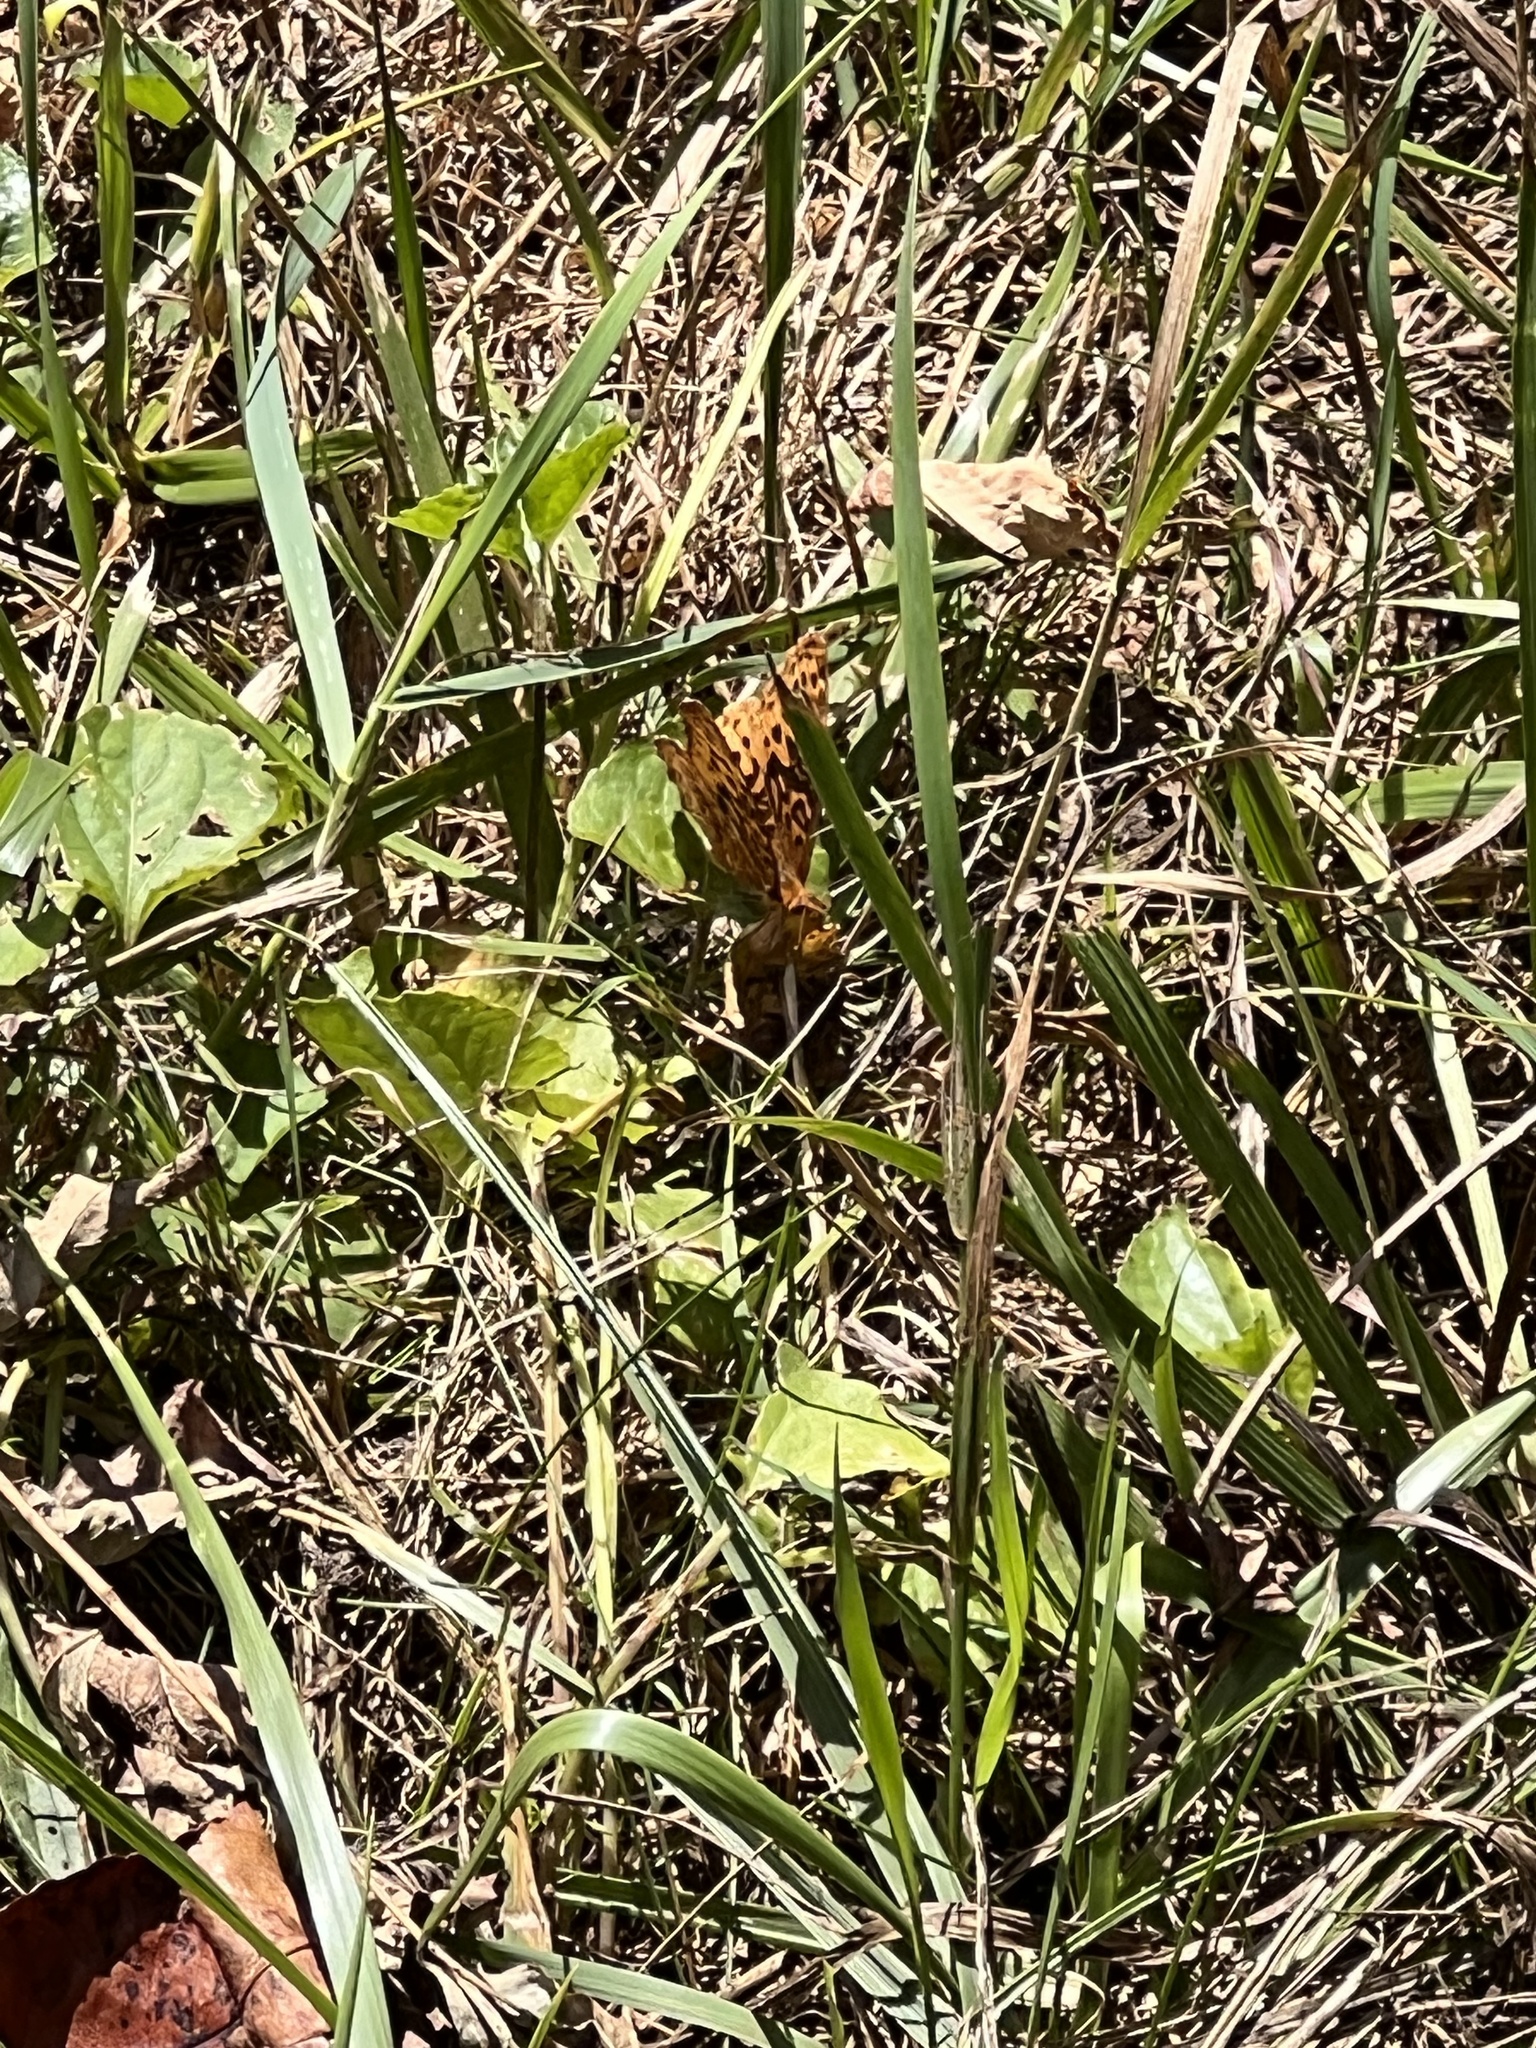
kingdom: Animalia
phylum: Arthropoda
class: Insecta
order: Lepidoptera
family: Nymphalidae
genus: Clossiana
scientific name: Clossiana toddi
